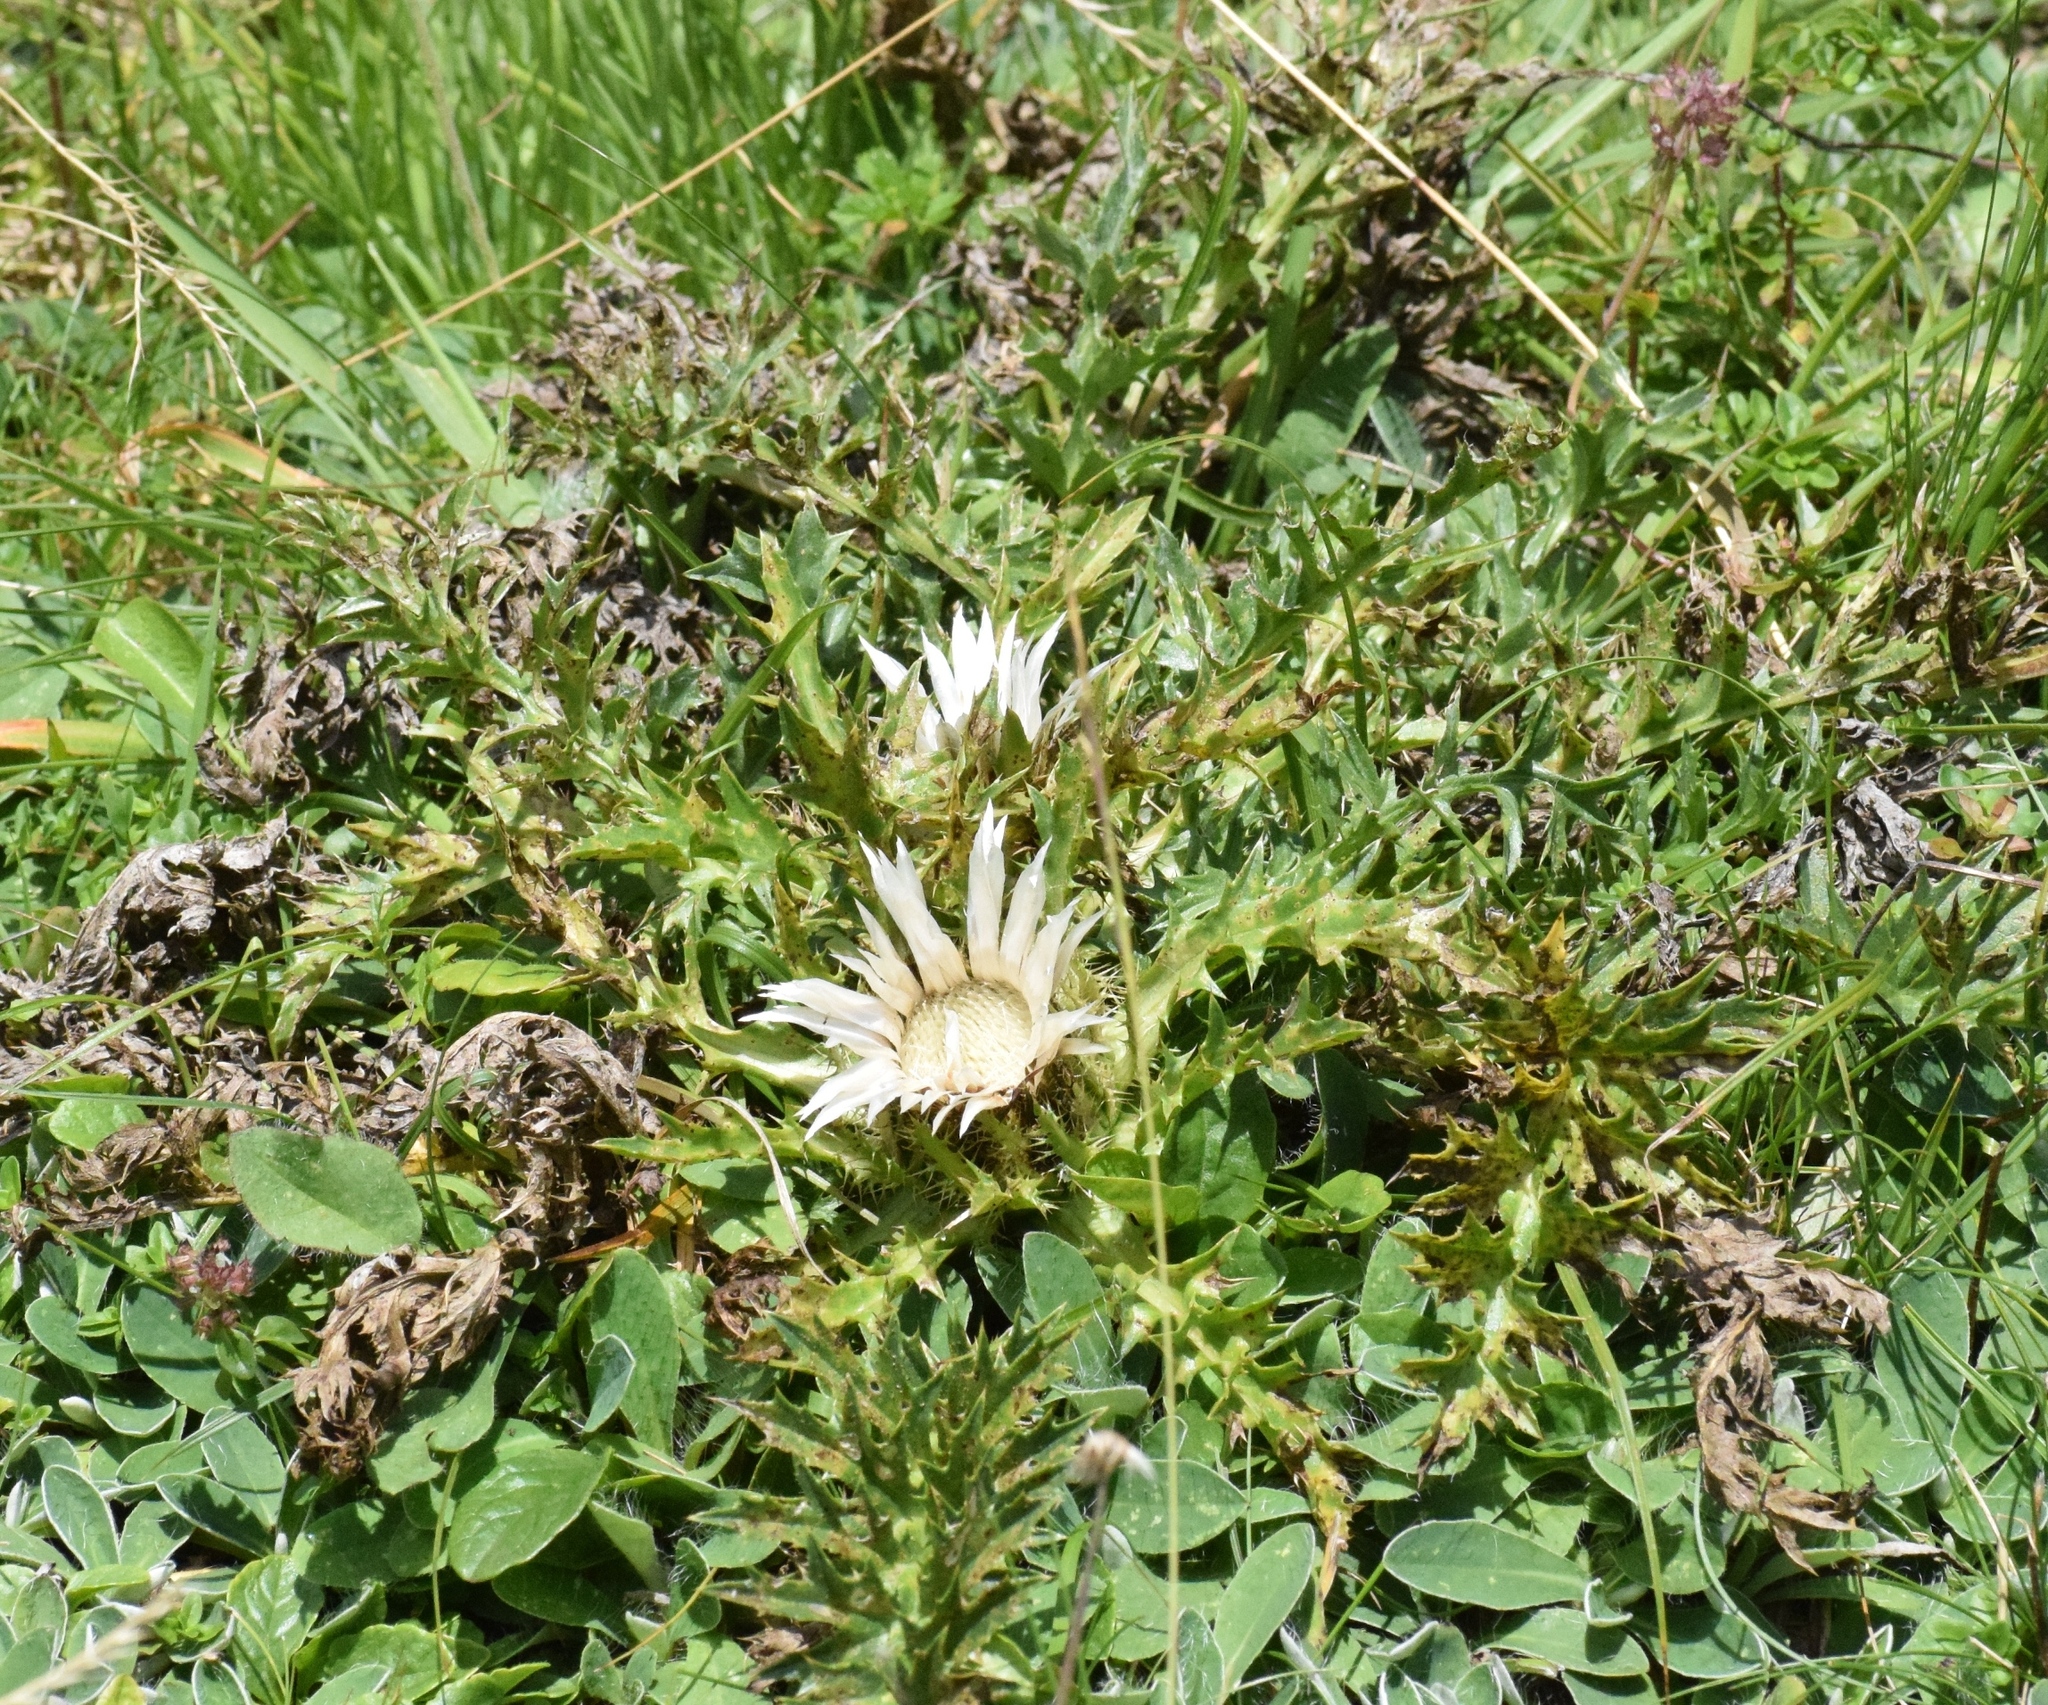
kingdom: Plantae
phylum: Tracheophyta
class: Magnoliopsida
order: Asterales
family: Asteraceae
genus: Carlina
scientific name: Carlina acaulis
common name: Stemless carline thistle
